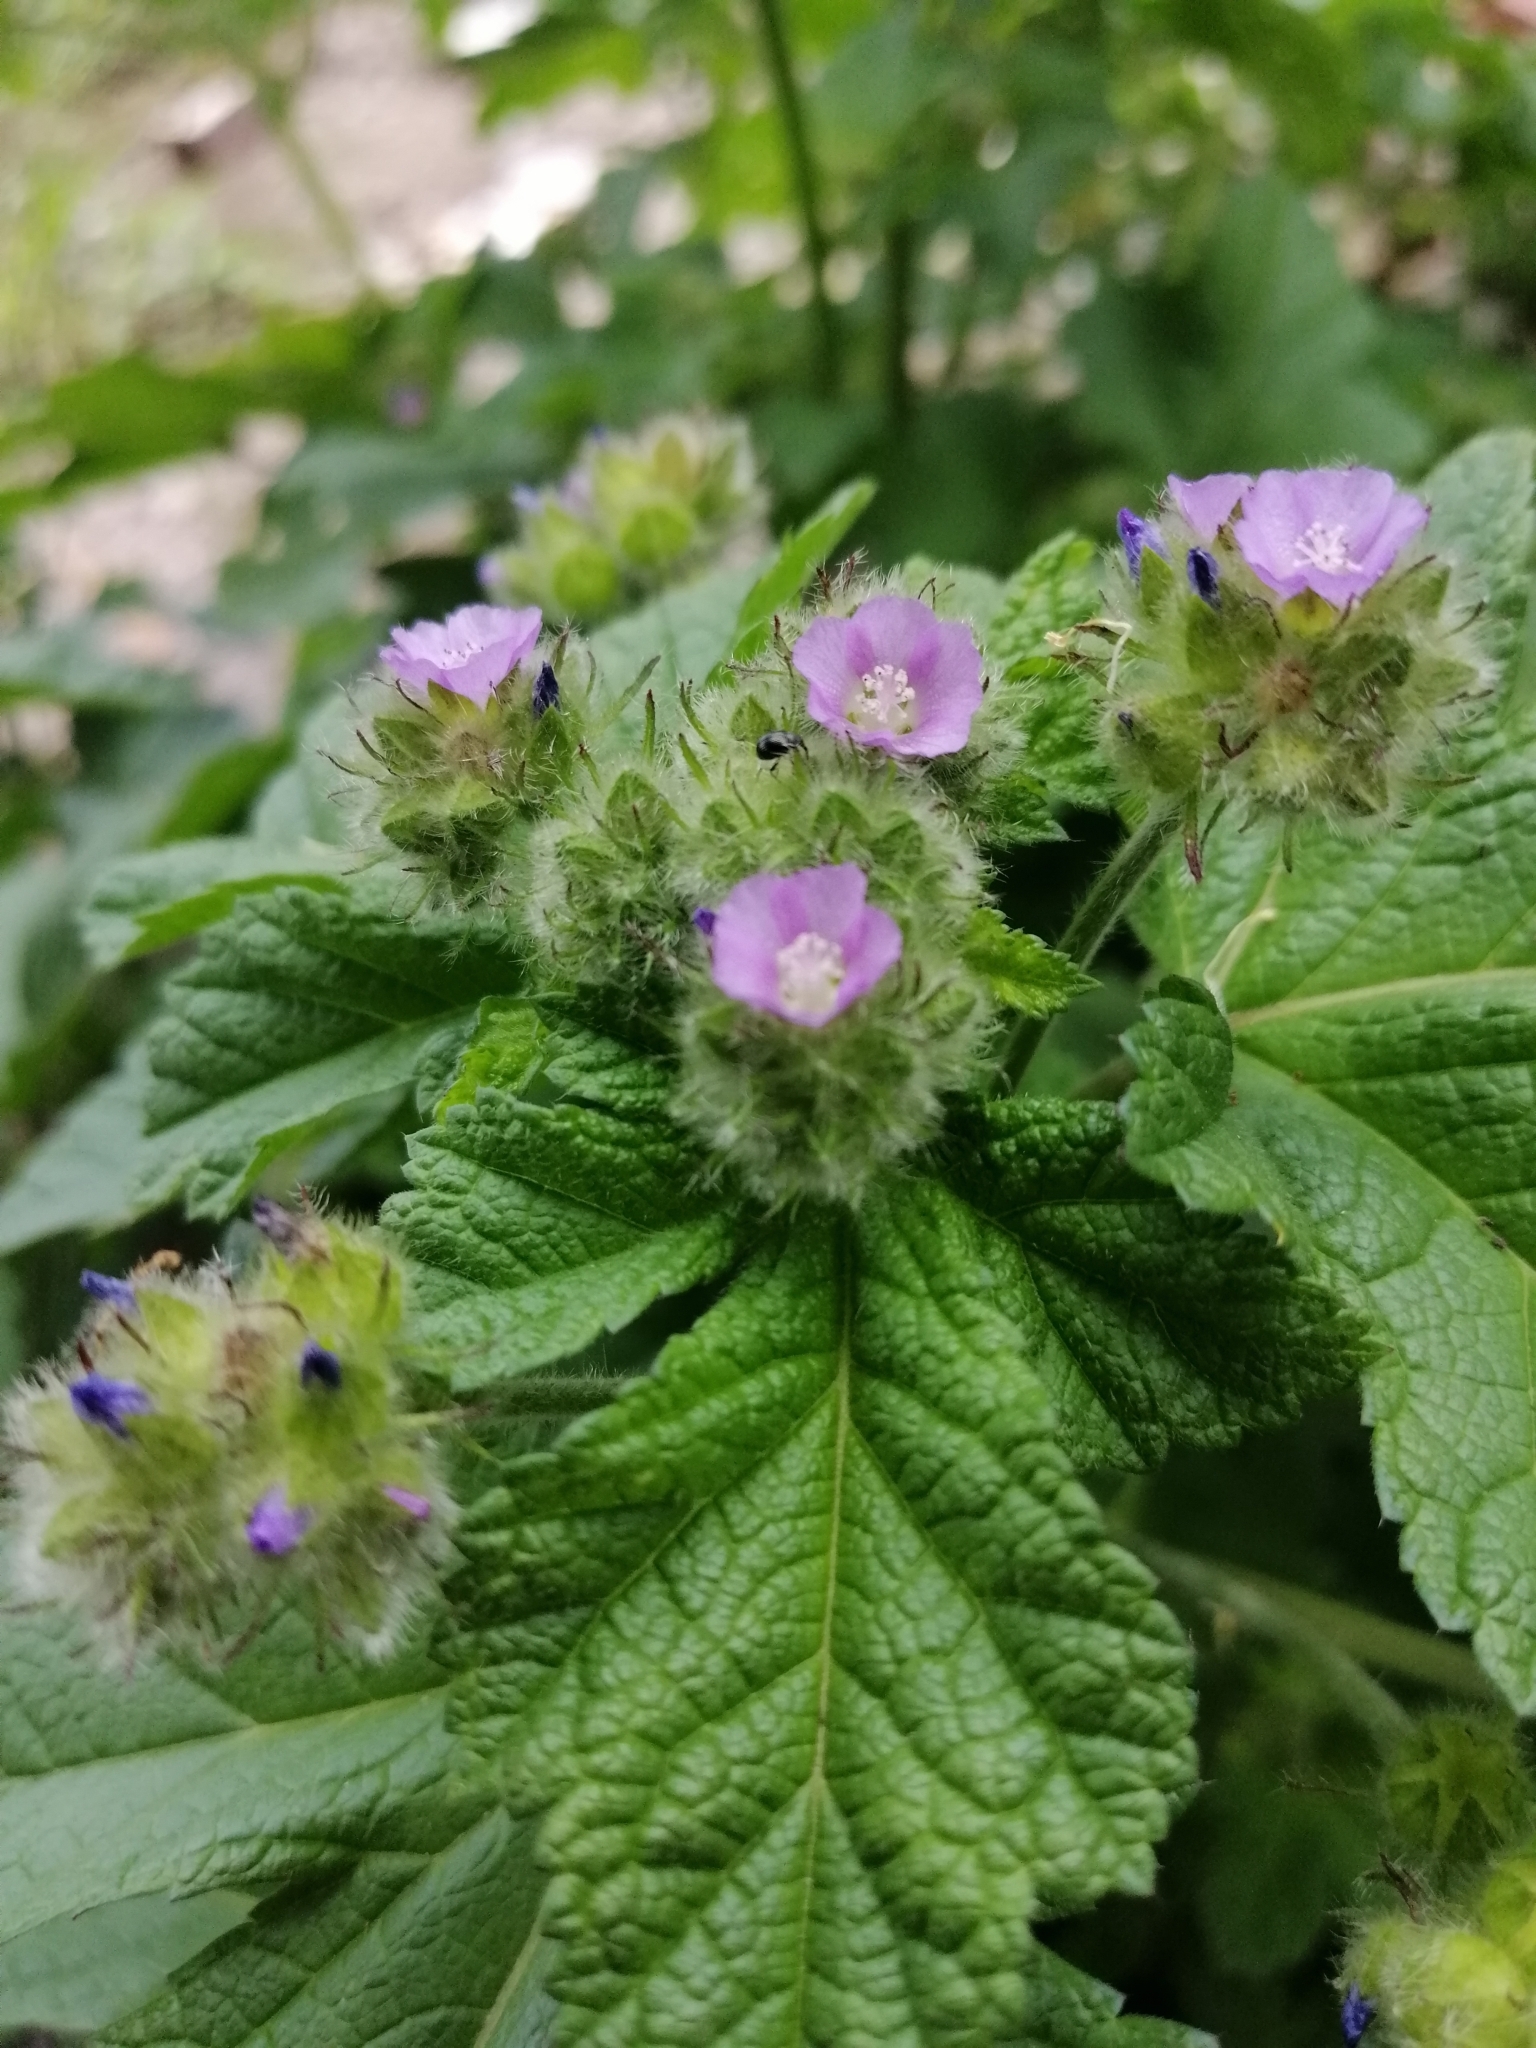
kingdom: Plantae
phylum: Tracheophyta
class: Magnoliopsida
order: Malvales
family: Malvaceae
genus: Fuertesimalva
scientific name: Fuertesimalva limensis
